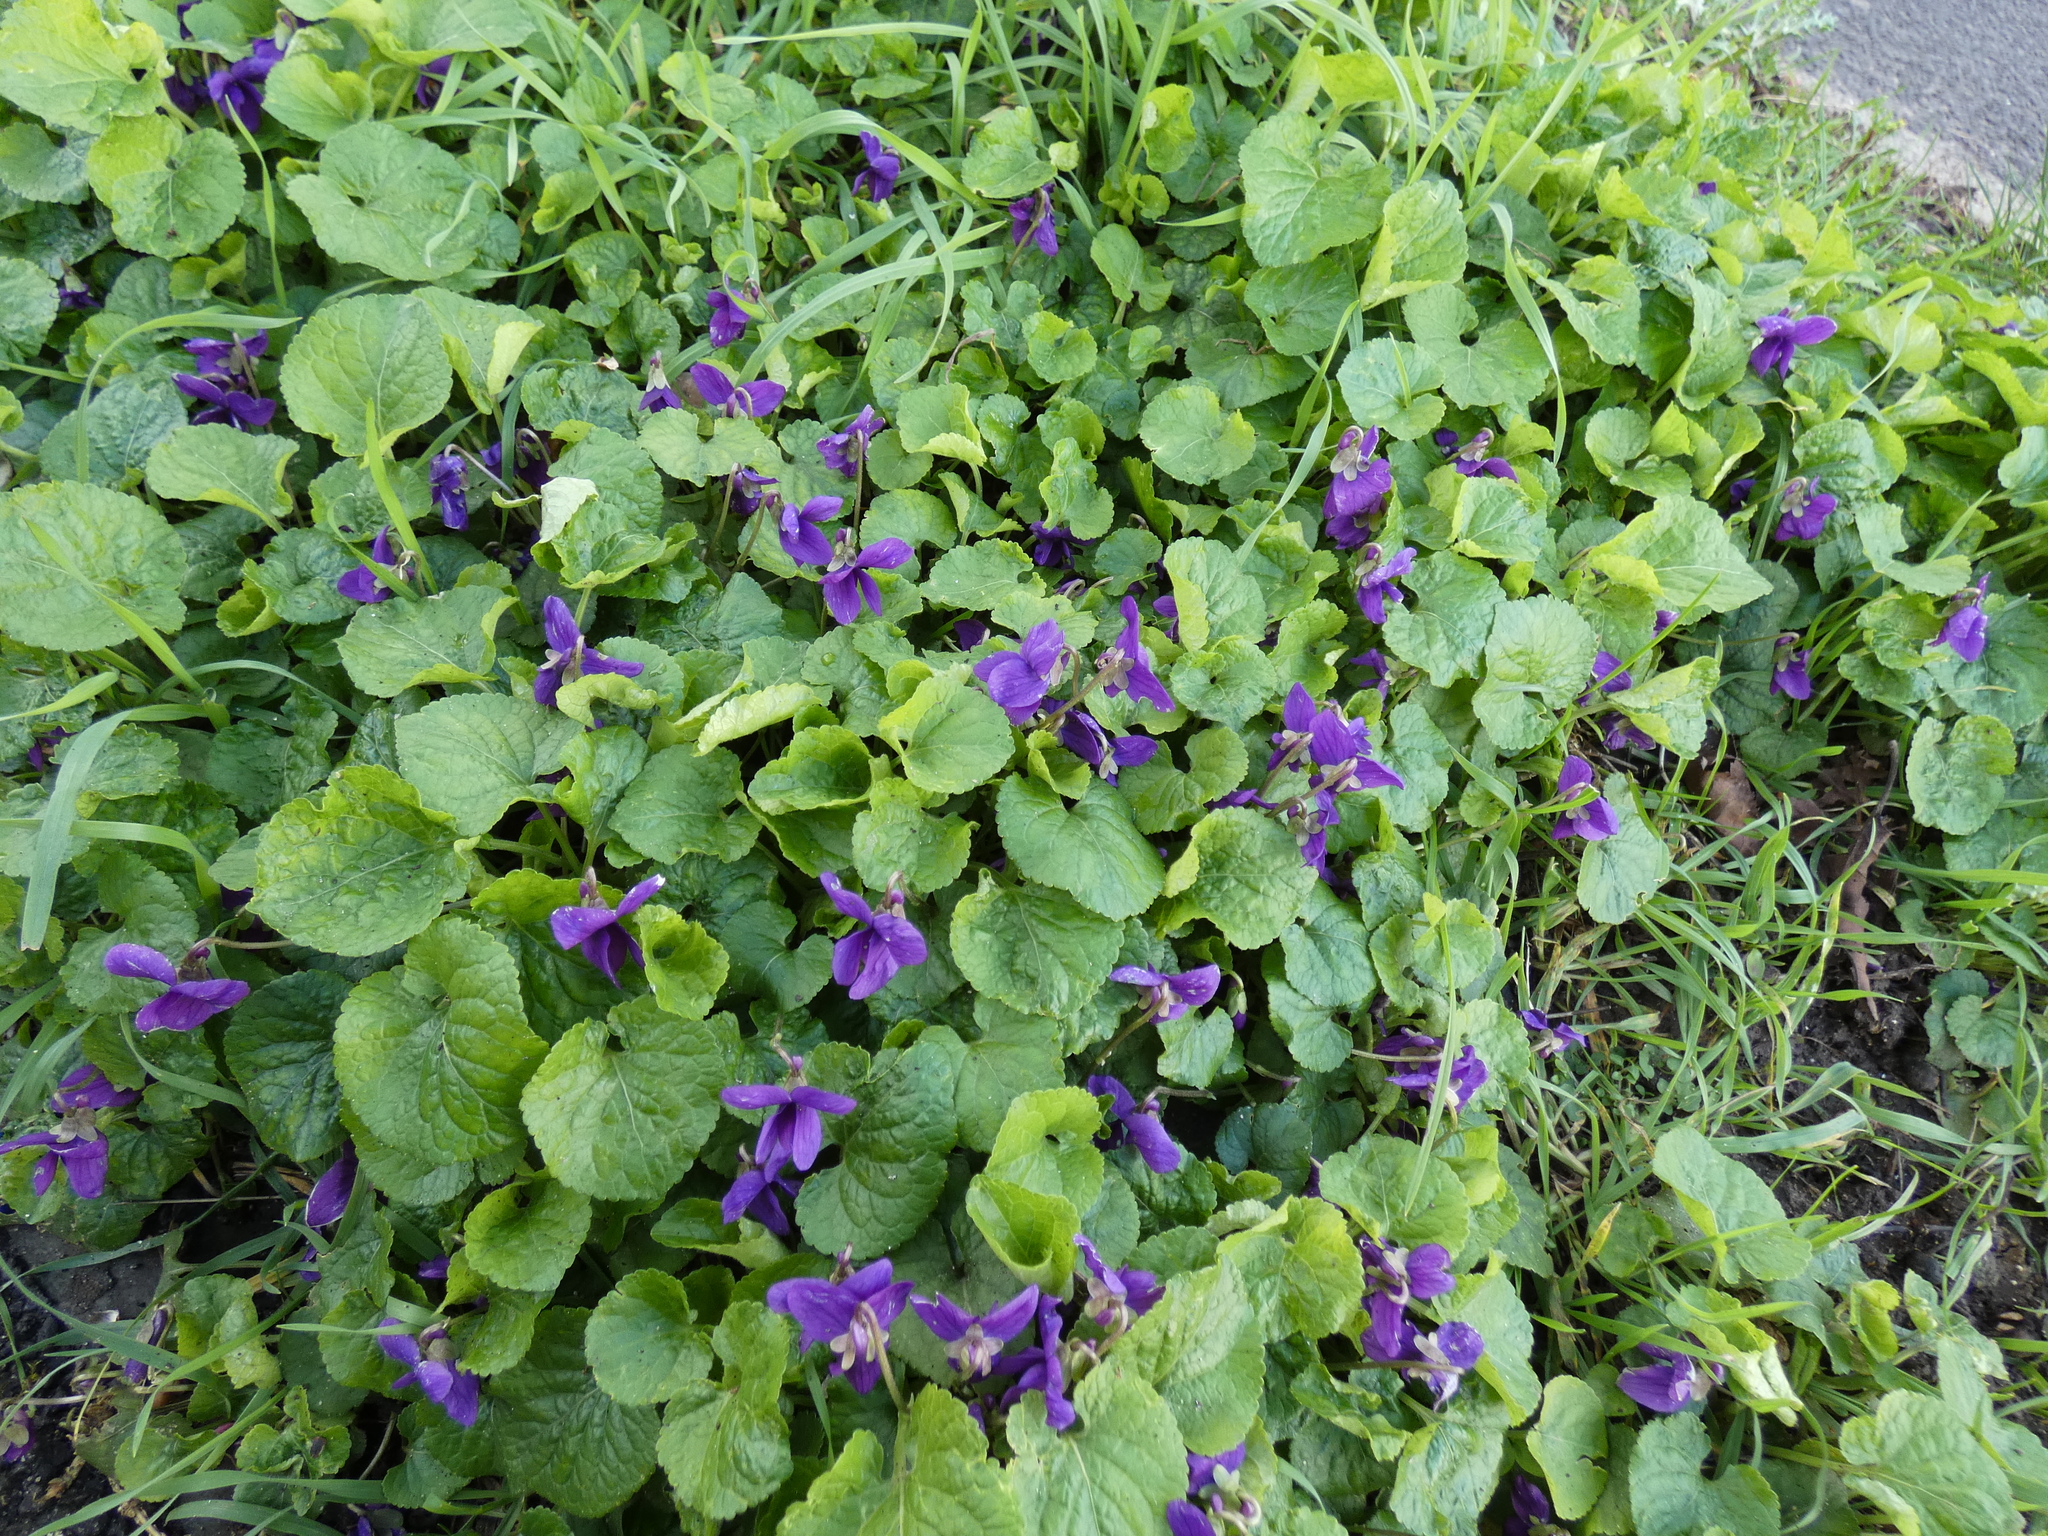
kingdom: Plantae
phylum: Tracheophyta
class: Magnoliopsida
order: Malpighiales
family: Violaceae
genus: Viola
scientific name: Viola odorata
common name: Sweet violet
